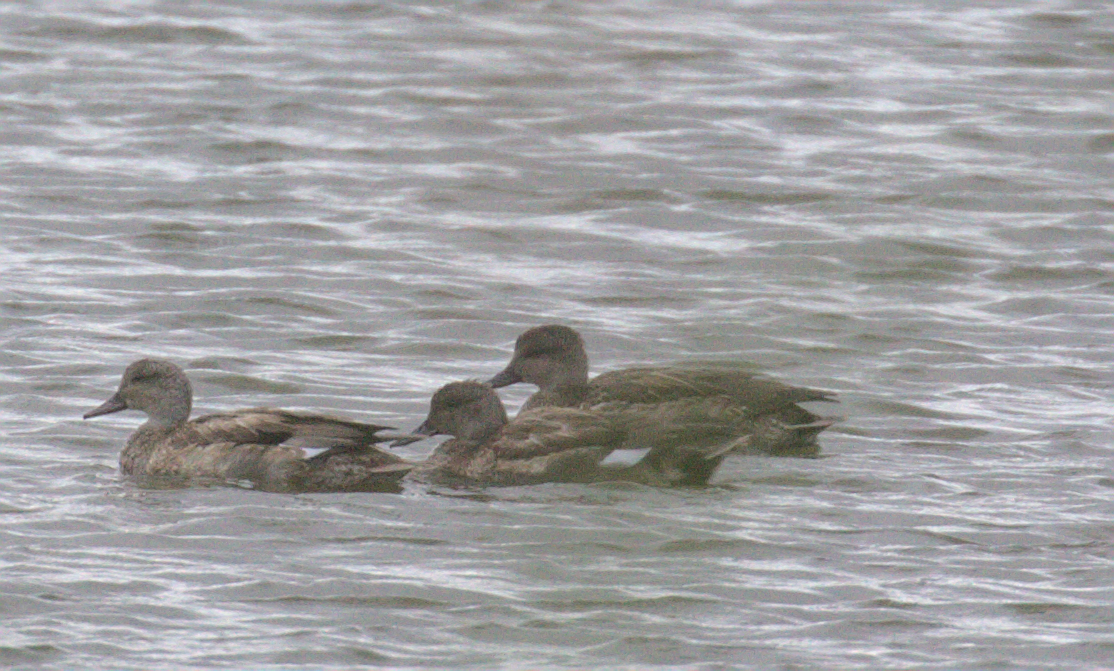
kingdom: Animalia
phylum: Chordata
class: Aves
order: Anseriformes
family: Anatidae
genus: Mareca
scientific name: Mareca strepera
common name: Gadwall
